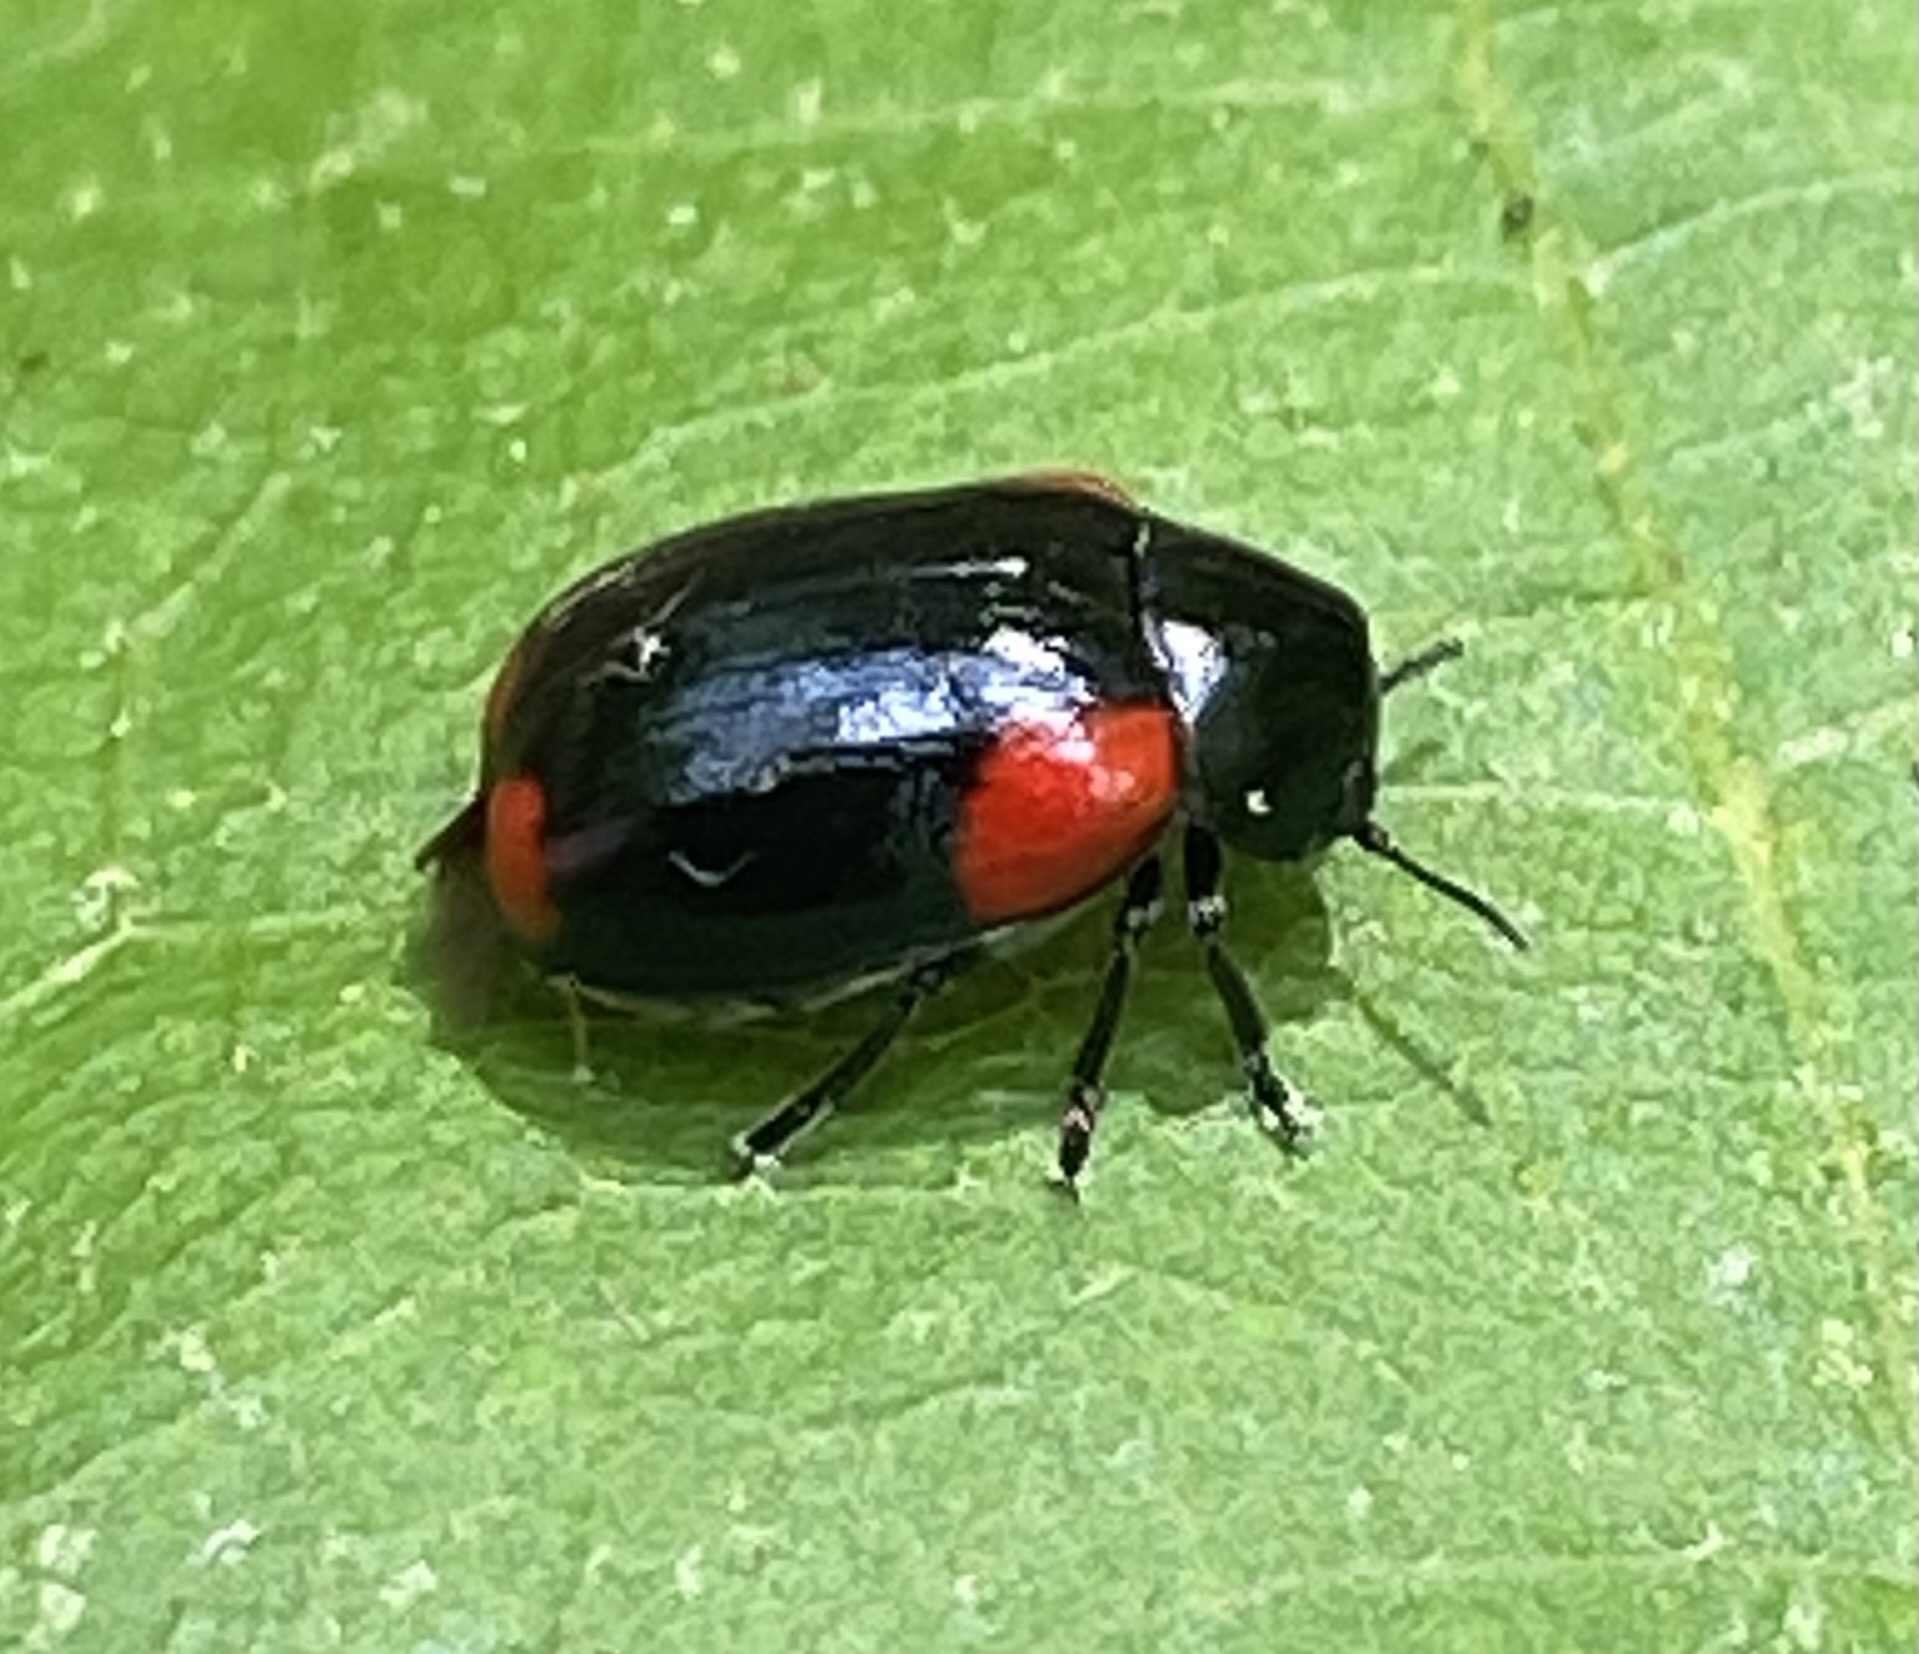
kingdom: Animalia
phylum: Arthropoda
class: Insecta
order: Coleoptera
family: Chrysomelidae
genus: Babia
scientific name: Babia quadriguttata
